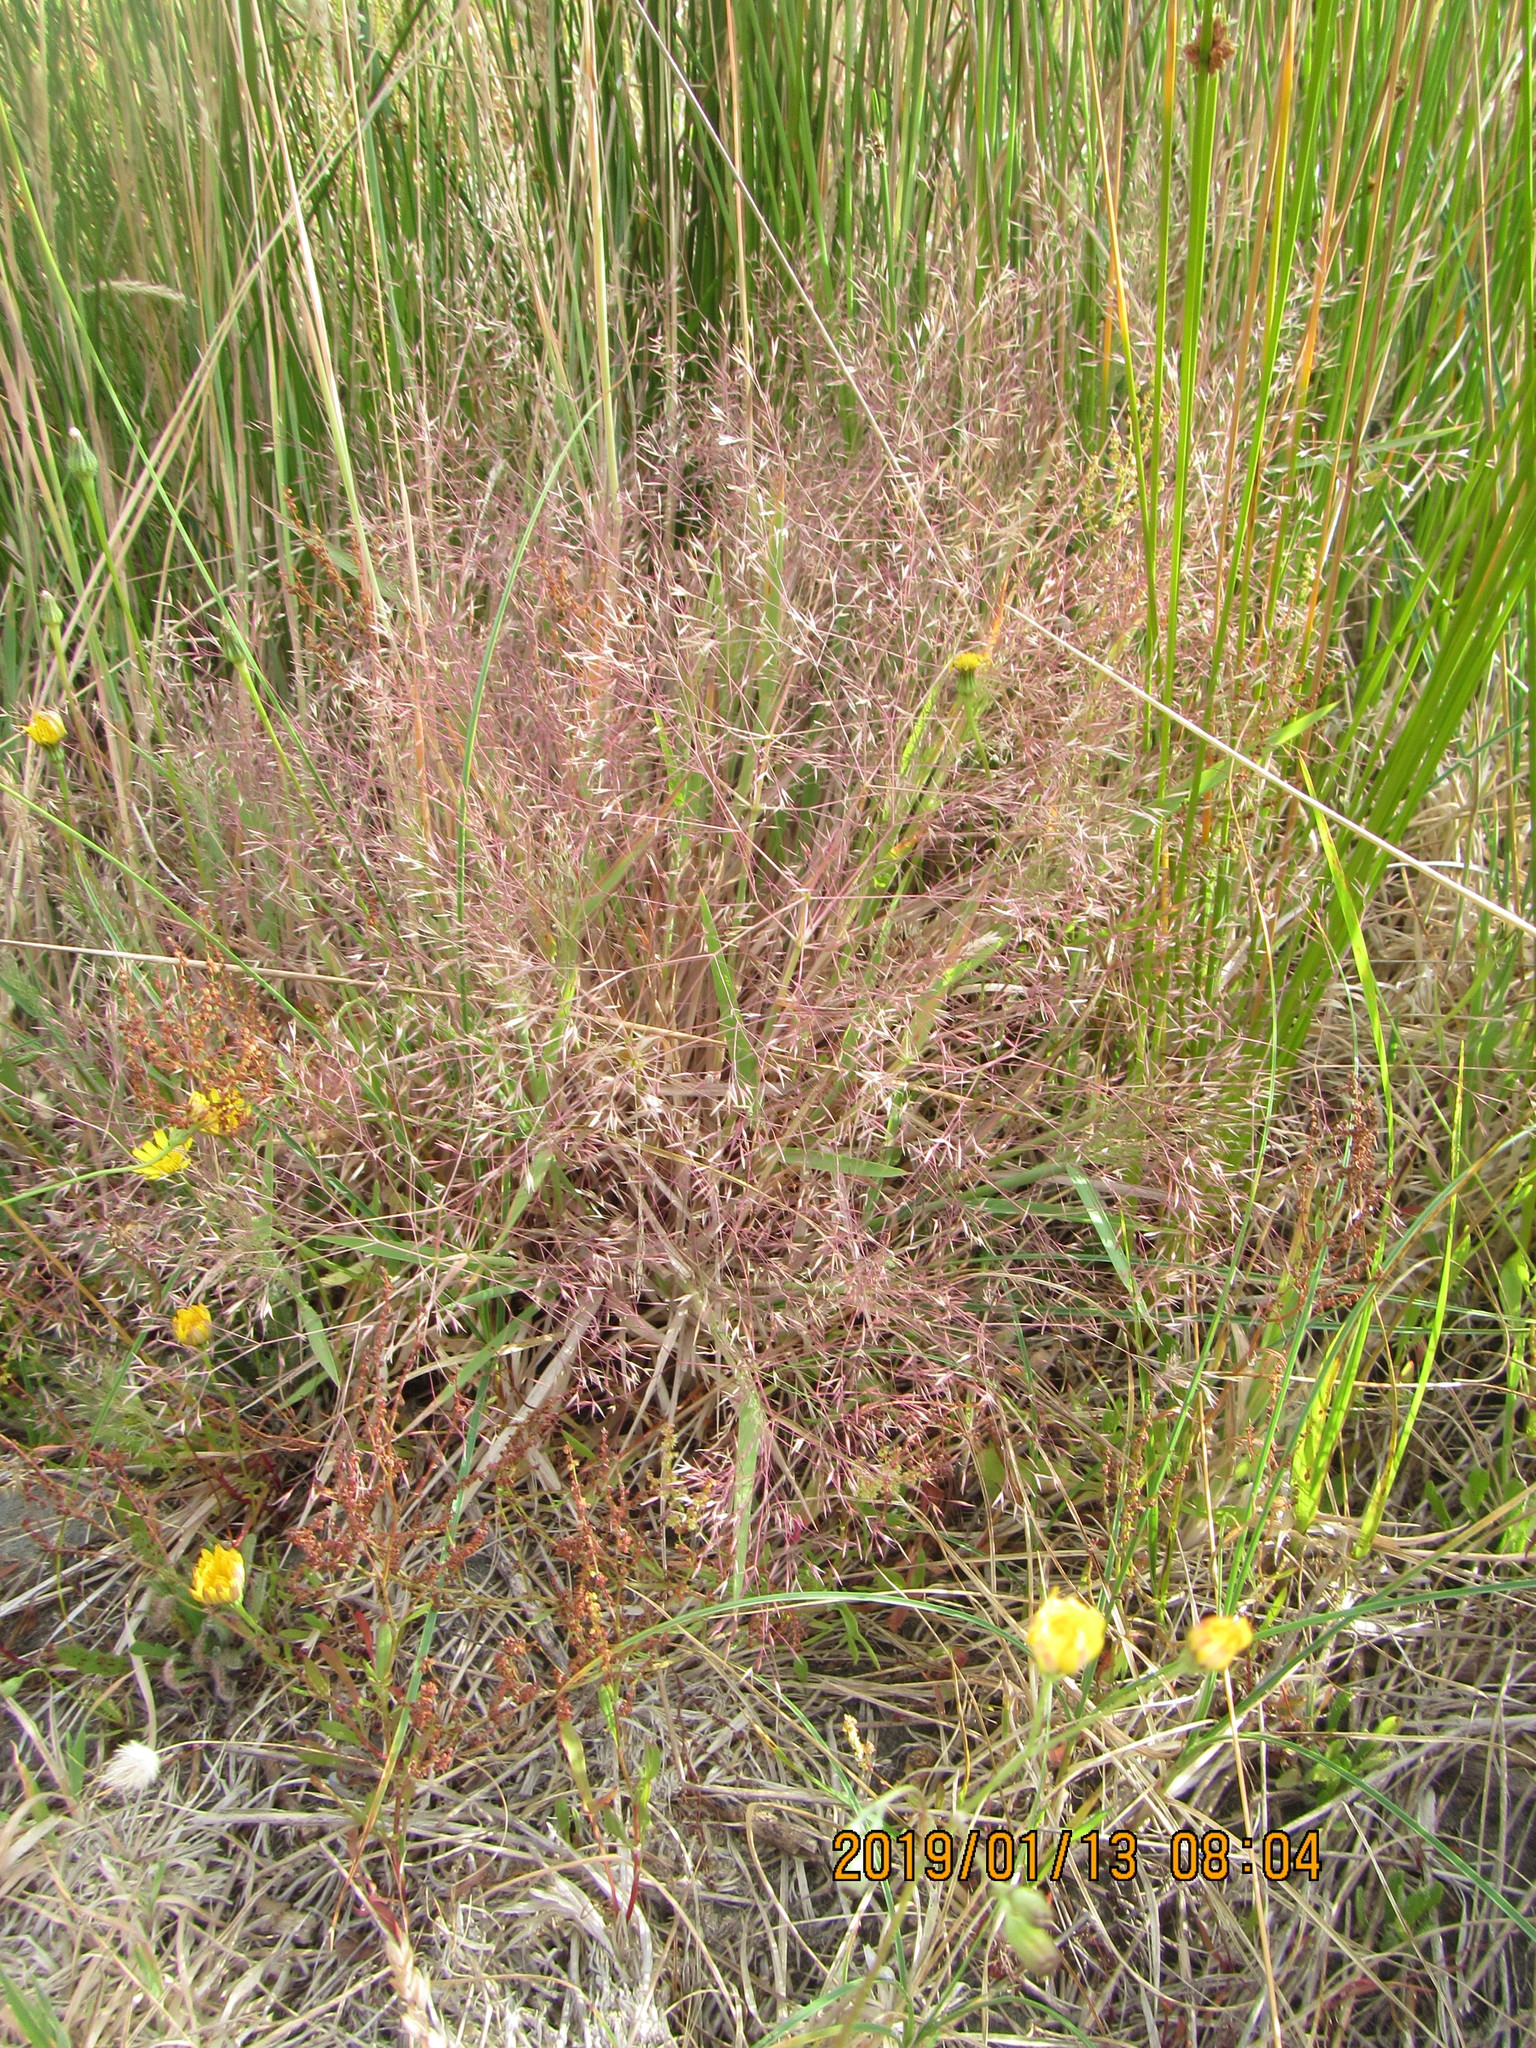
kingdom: Plantae
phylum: Tracheophyta
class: Liliopsida
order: Poales
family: Poaceae
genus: Lachnagrostis
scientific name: Lachnagrostis billardierei
